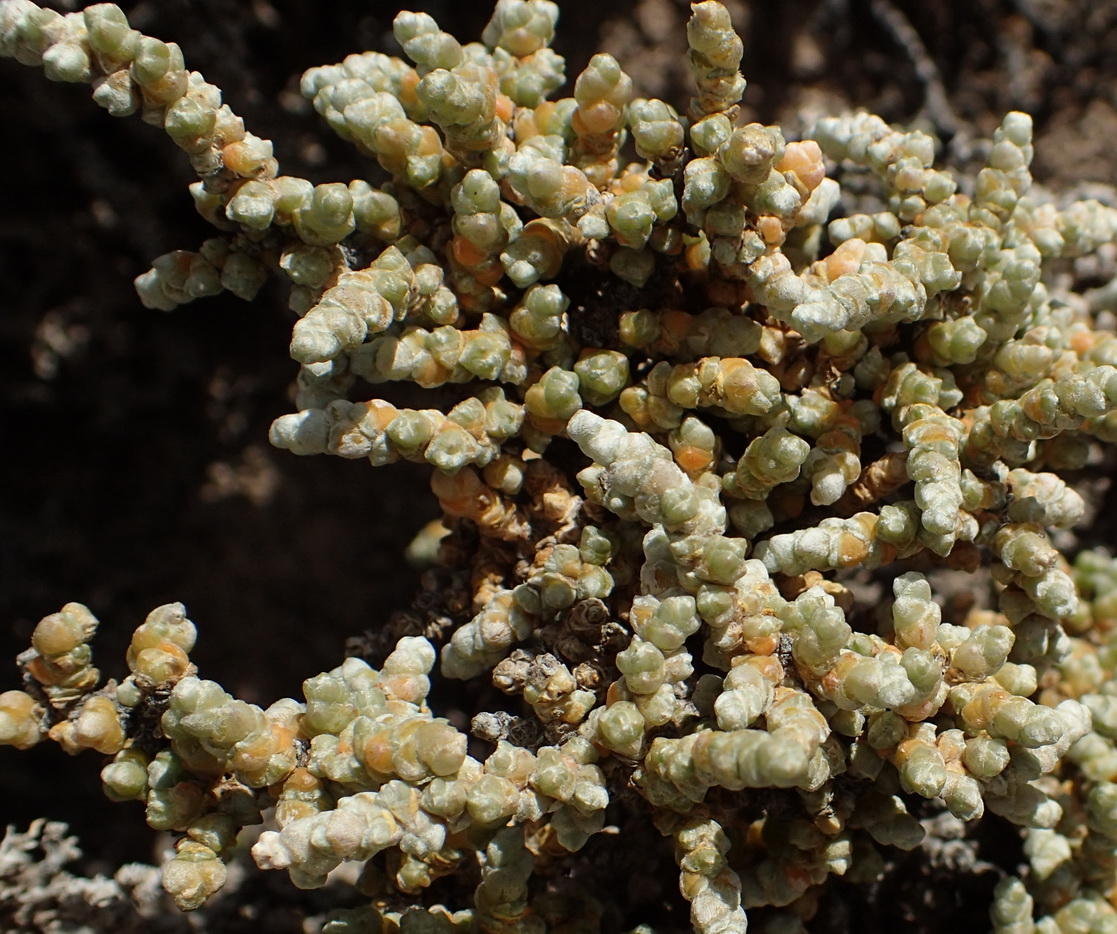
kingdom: Plantae
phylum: Tracheophyta
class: Magnoliopsida
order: Caryophyllales
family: Amaranthaceae
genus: Caroxylon
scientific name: Caroxylon aphyllum
